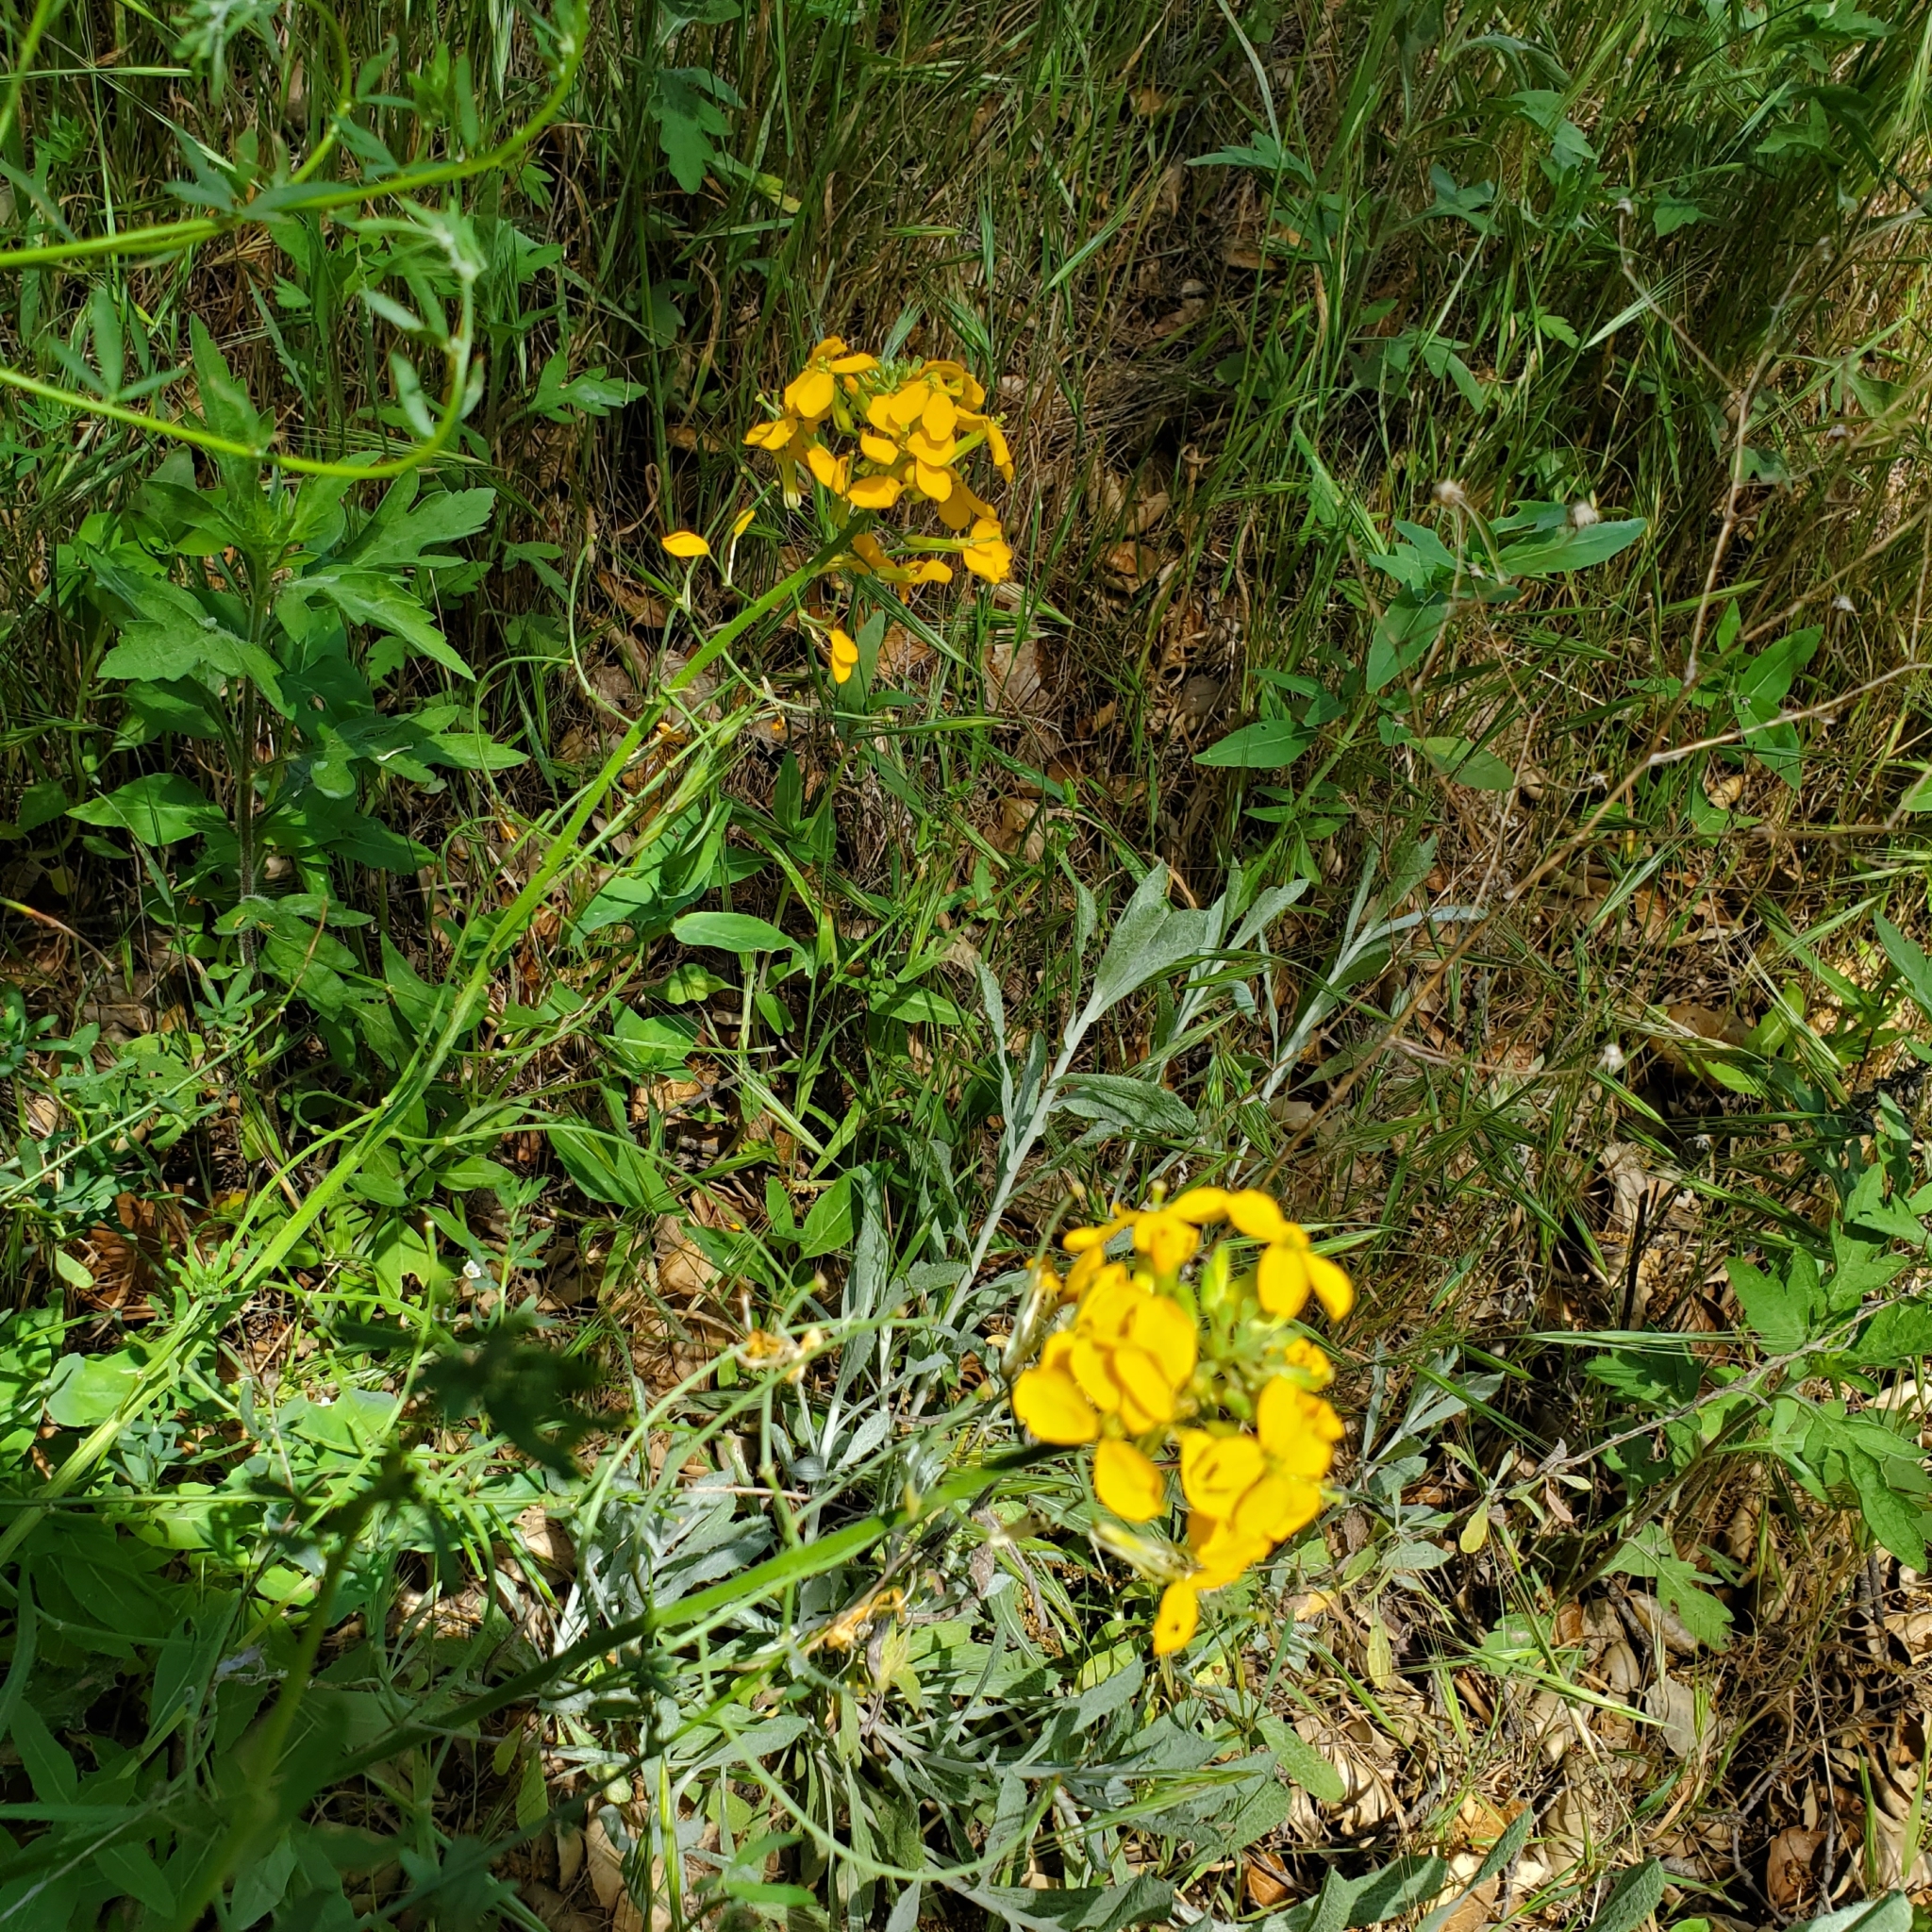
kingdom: Plantae
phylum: Tracheophyta
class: Magnoliopsida
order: Brassicales
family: Brassicaceae
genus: Erysimum
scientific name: Erysimum capitatum
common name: Western wallflower
